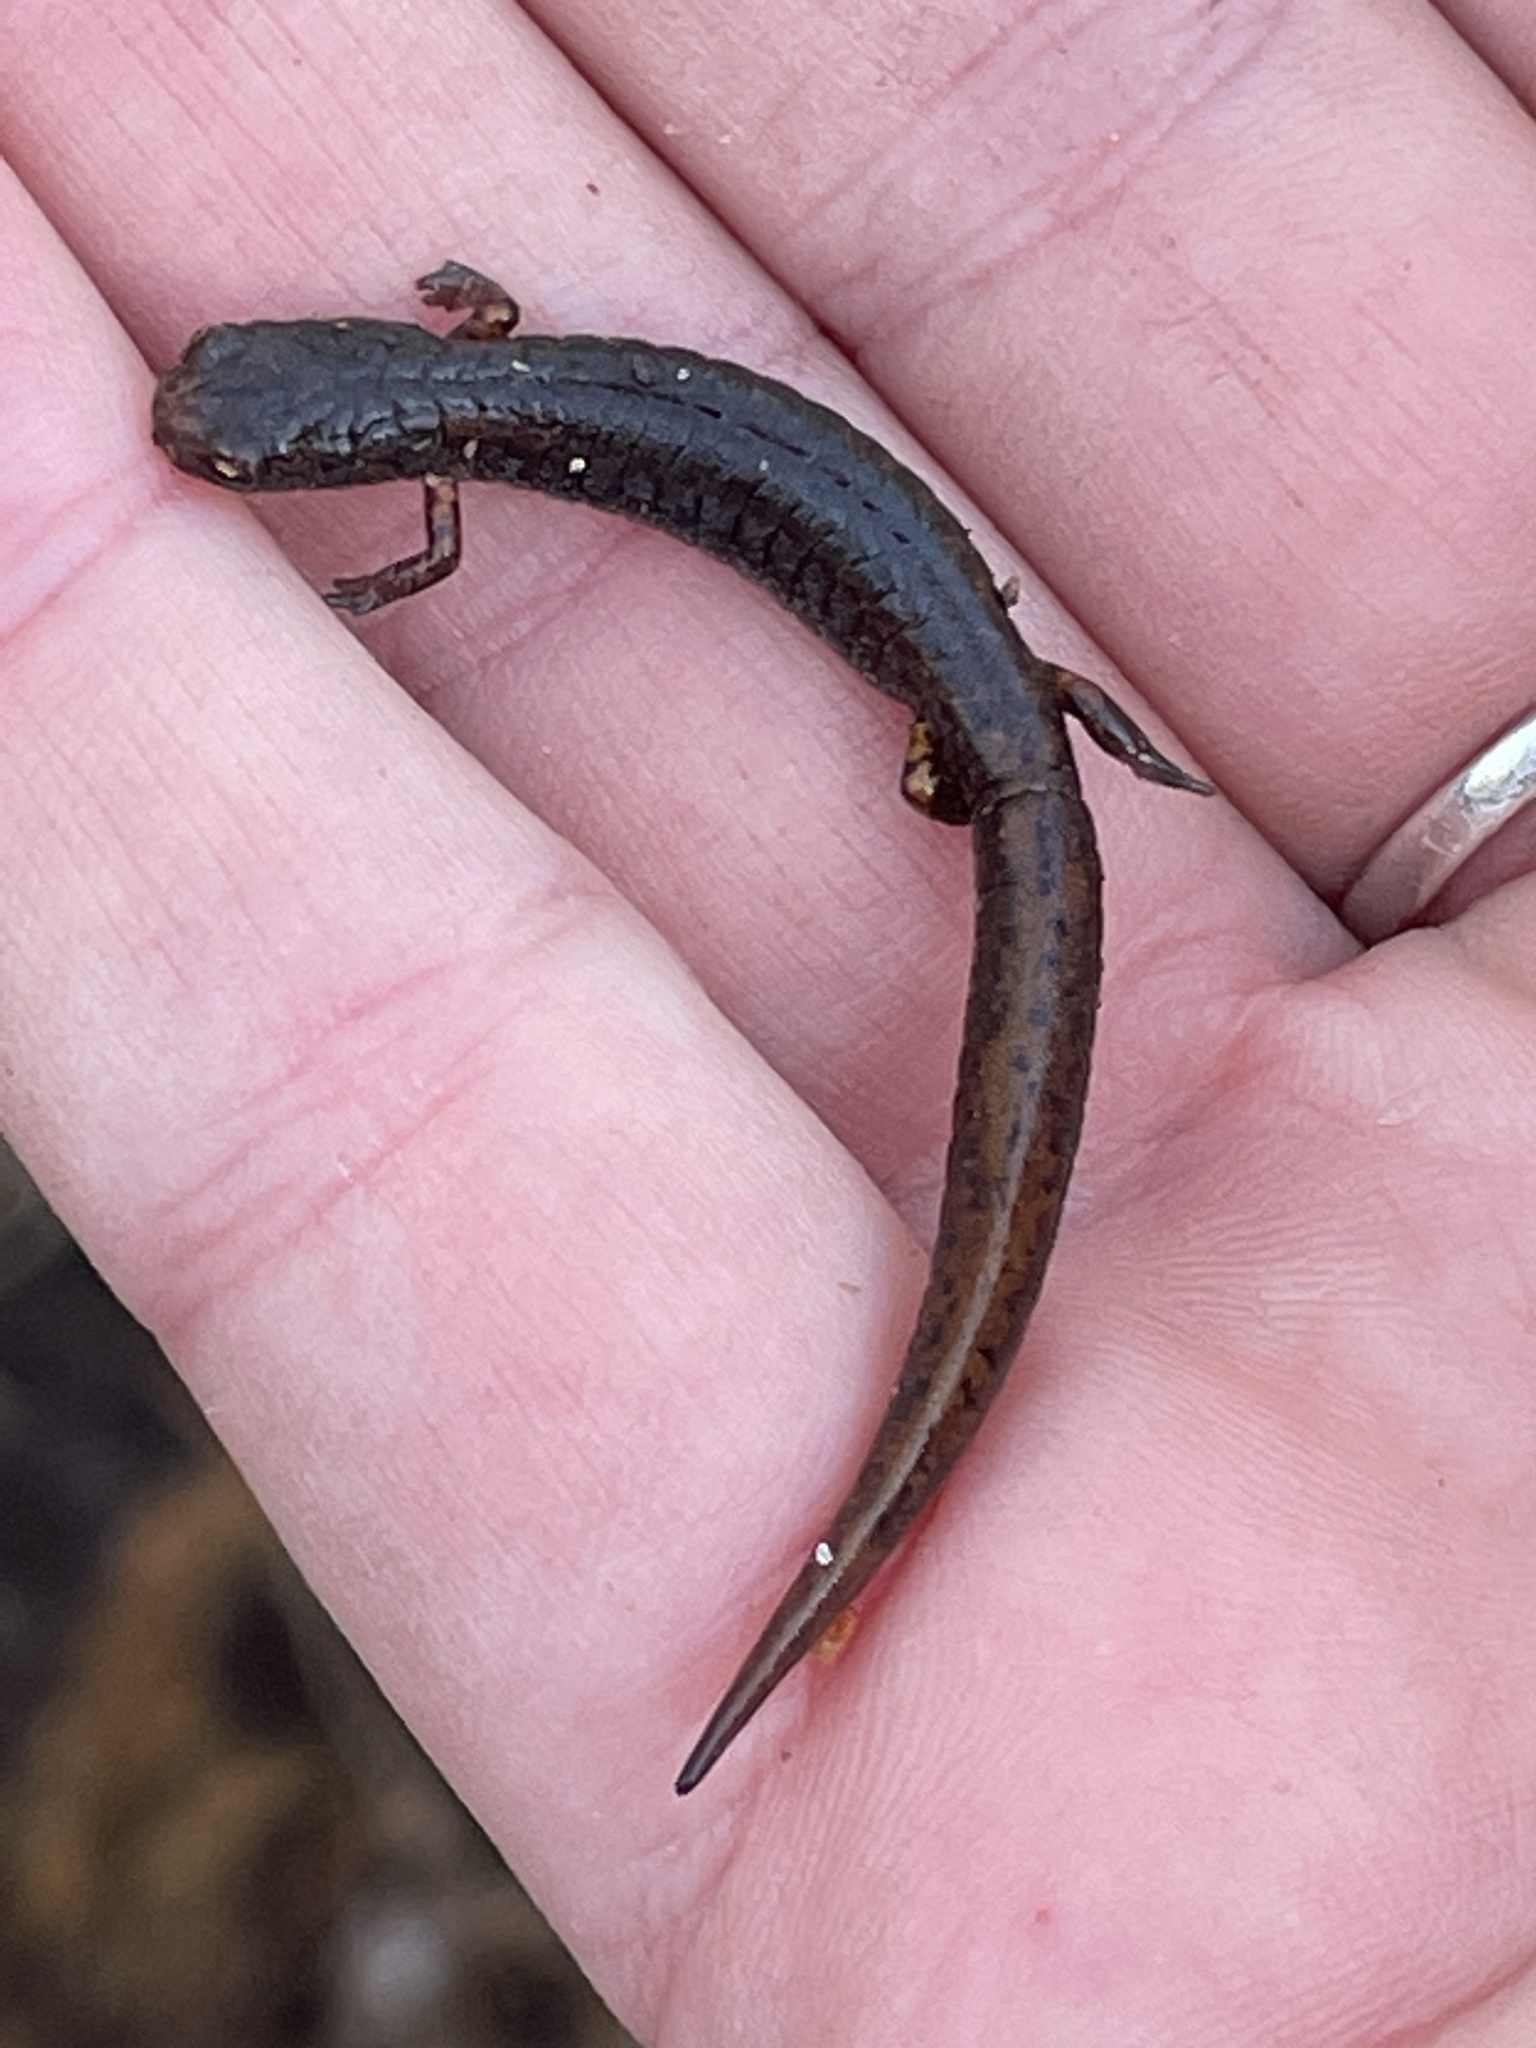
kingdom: Animalia
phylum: Chordata
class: Amphibia
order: Caudata
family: Plethodontidae
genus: Hemidactylium
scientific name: Hemidactylium scutatum
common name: Four-toed salamander
